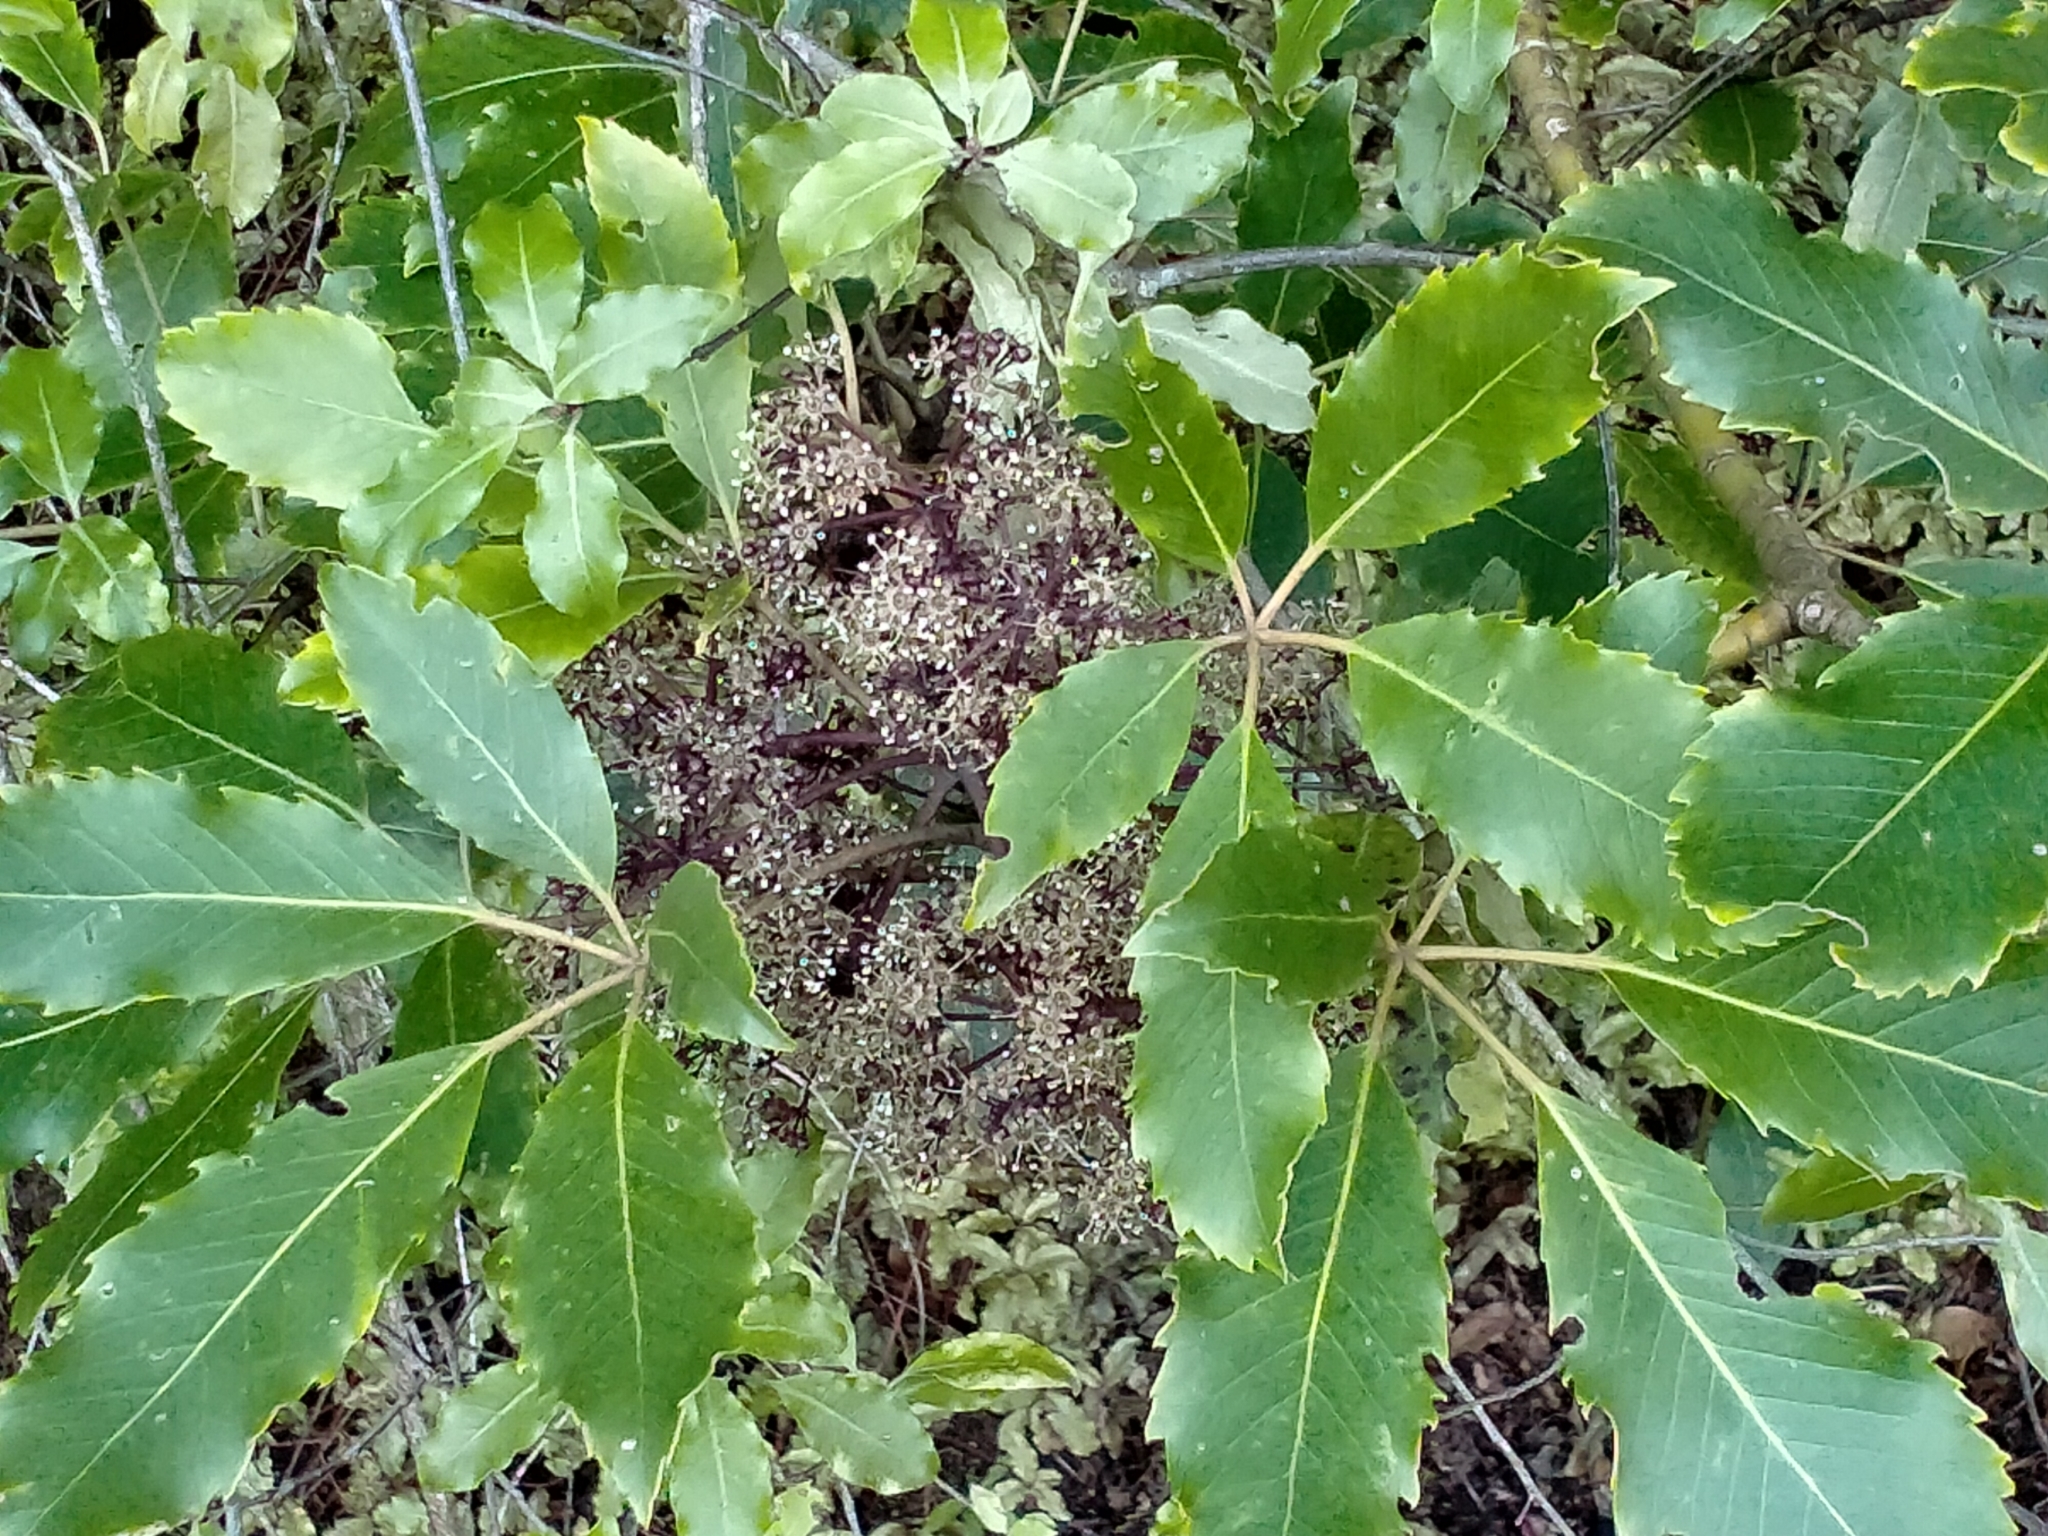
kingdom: Plantae
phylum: Tracheophyta
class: Magnoliopsida
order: Apiales
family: Araliaceae
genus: Neopanax
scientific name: Neopanax arboreus
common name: Five-fingers
